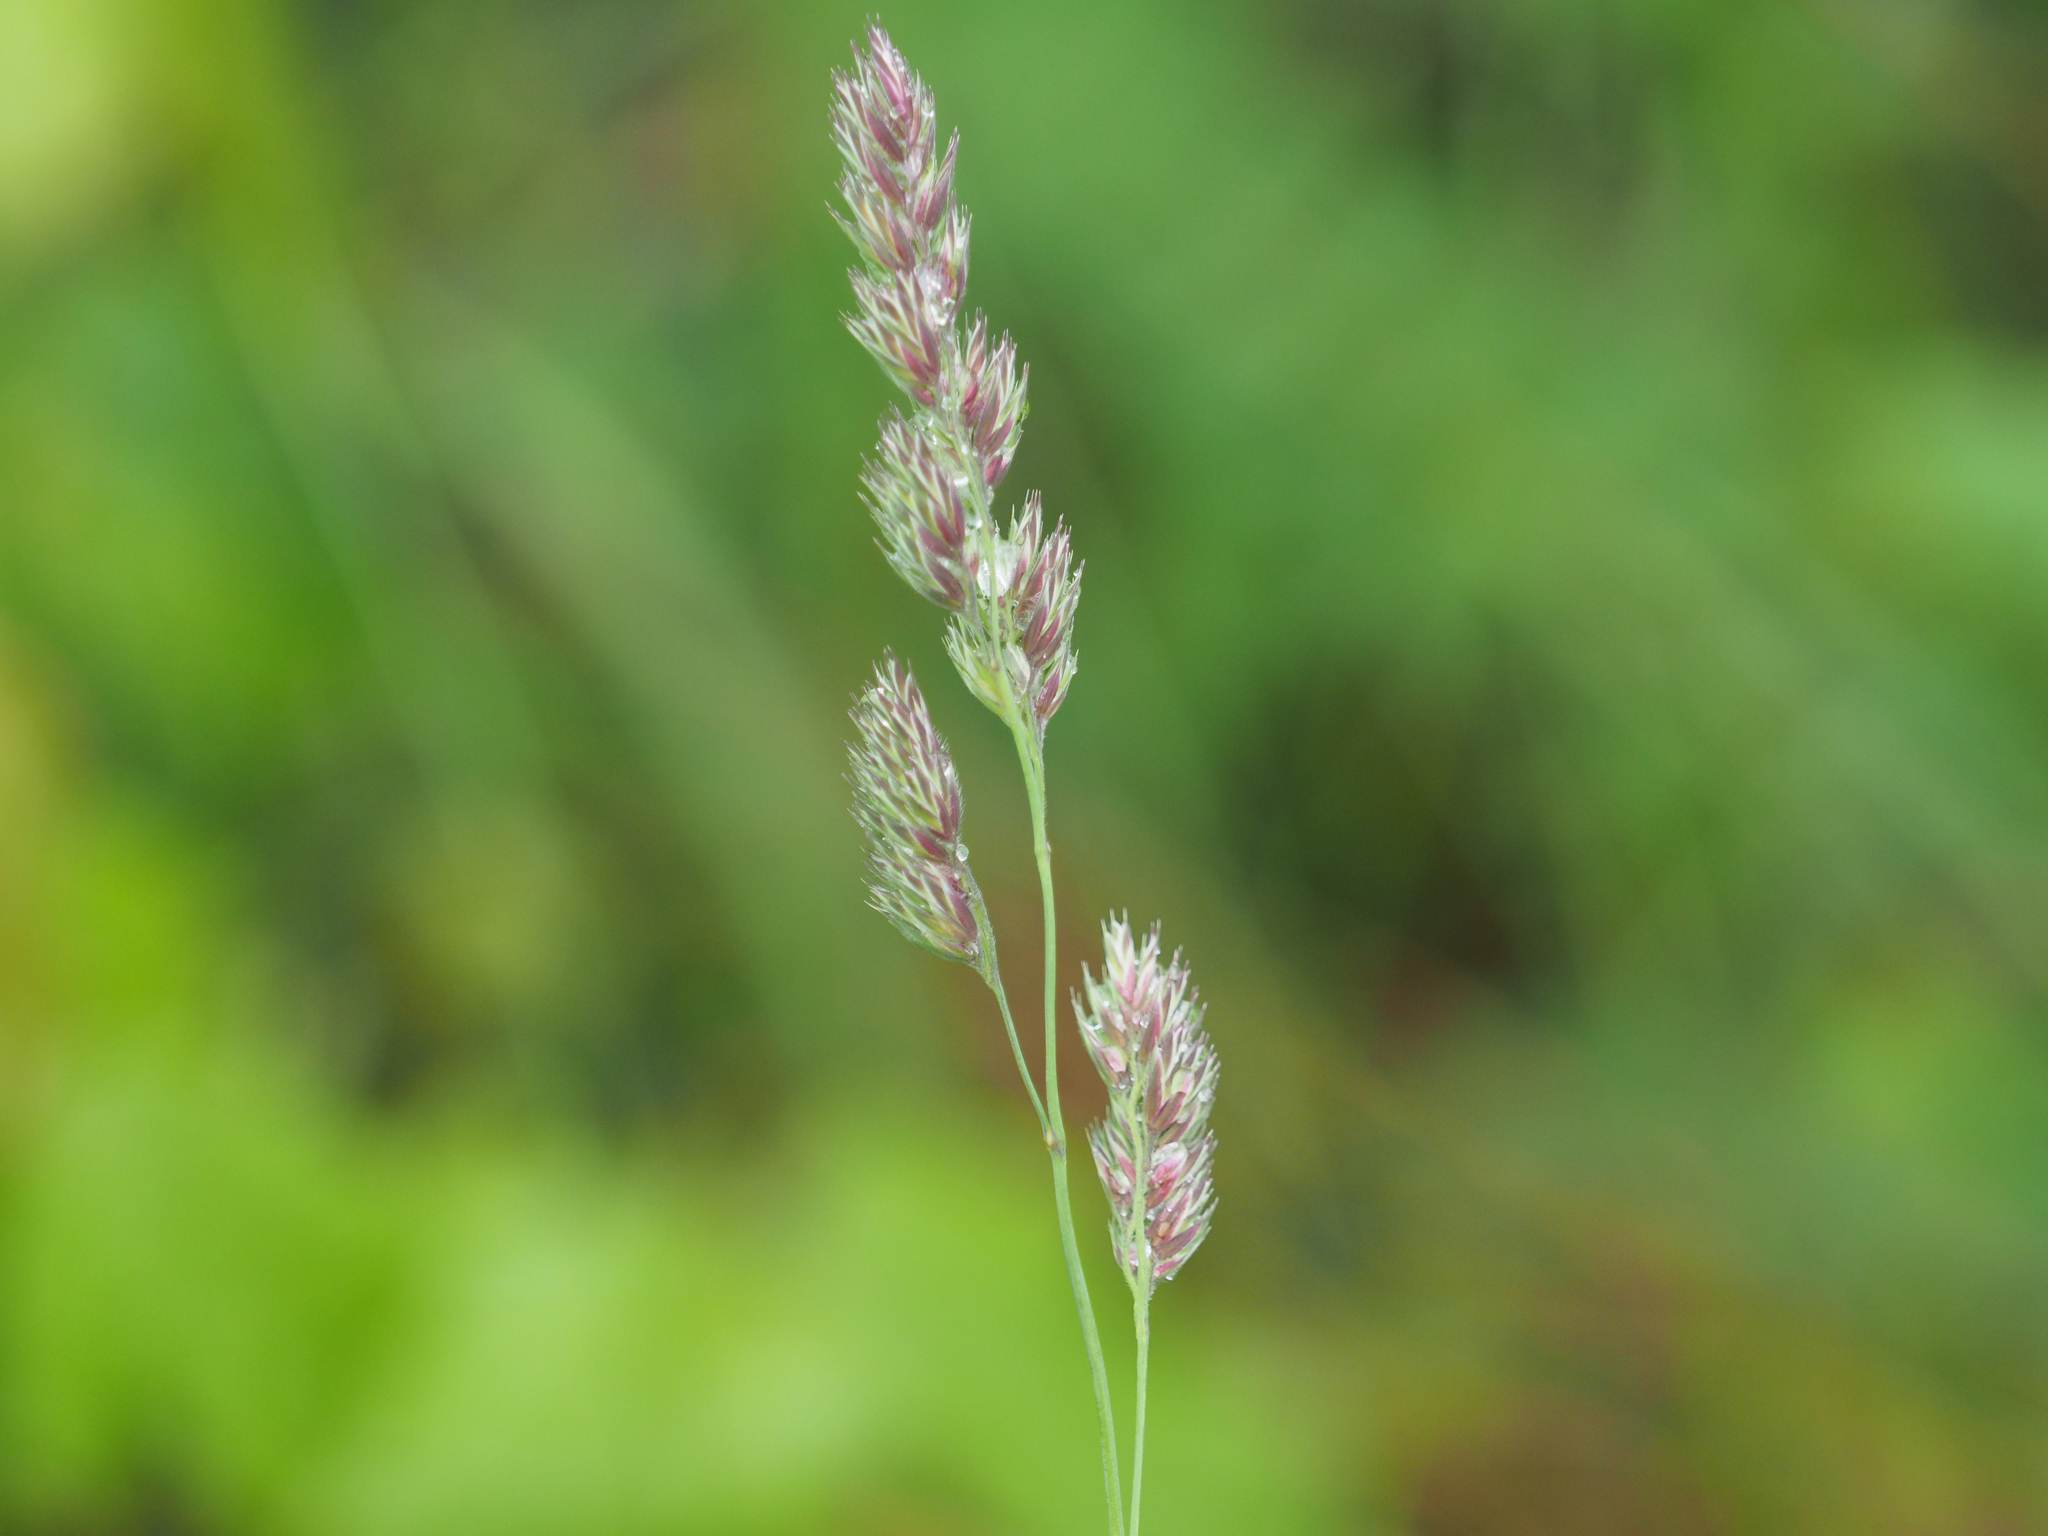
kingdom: Plantae
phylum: Tracheophyta
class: Liliopsida
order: Poales
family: Poaceae
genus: Dactylis
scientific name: Dactylis glomerata
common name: Orchardgrass
